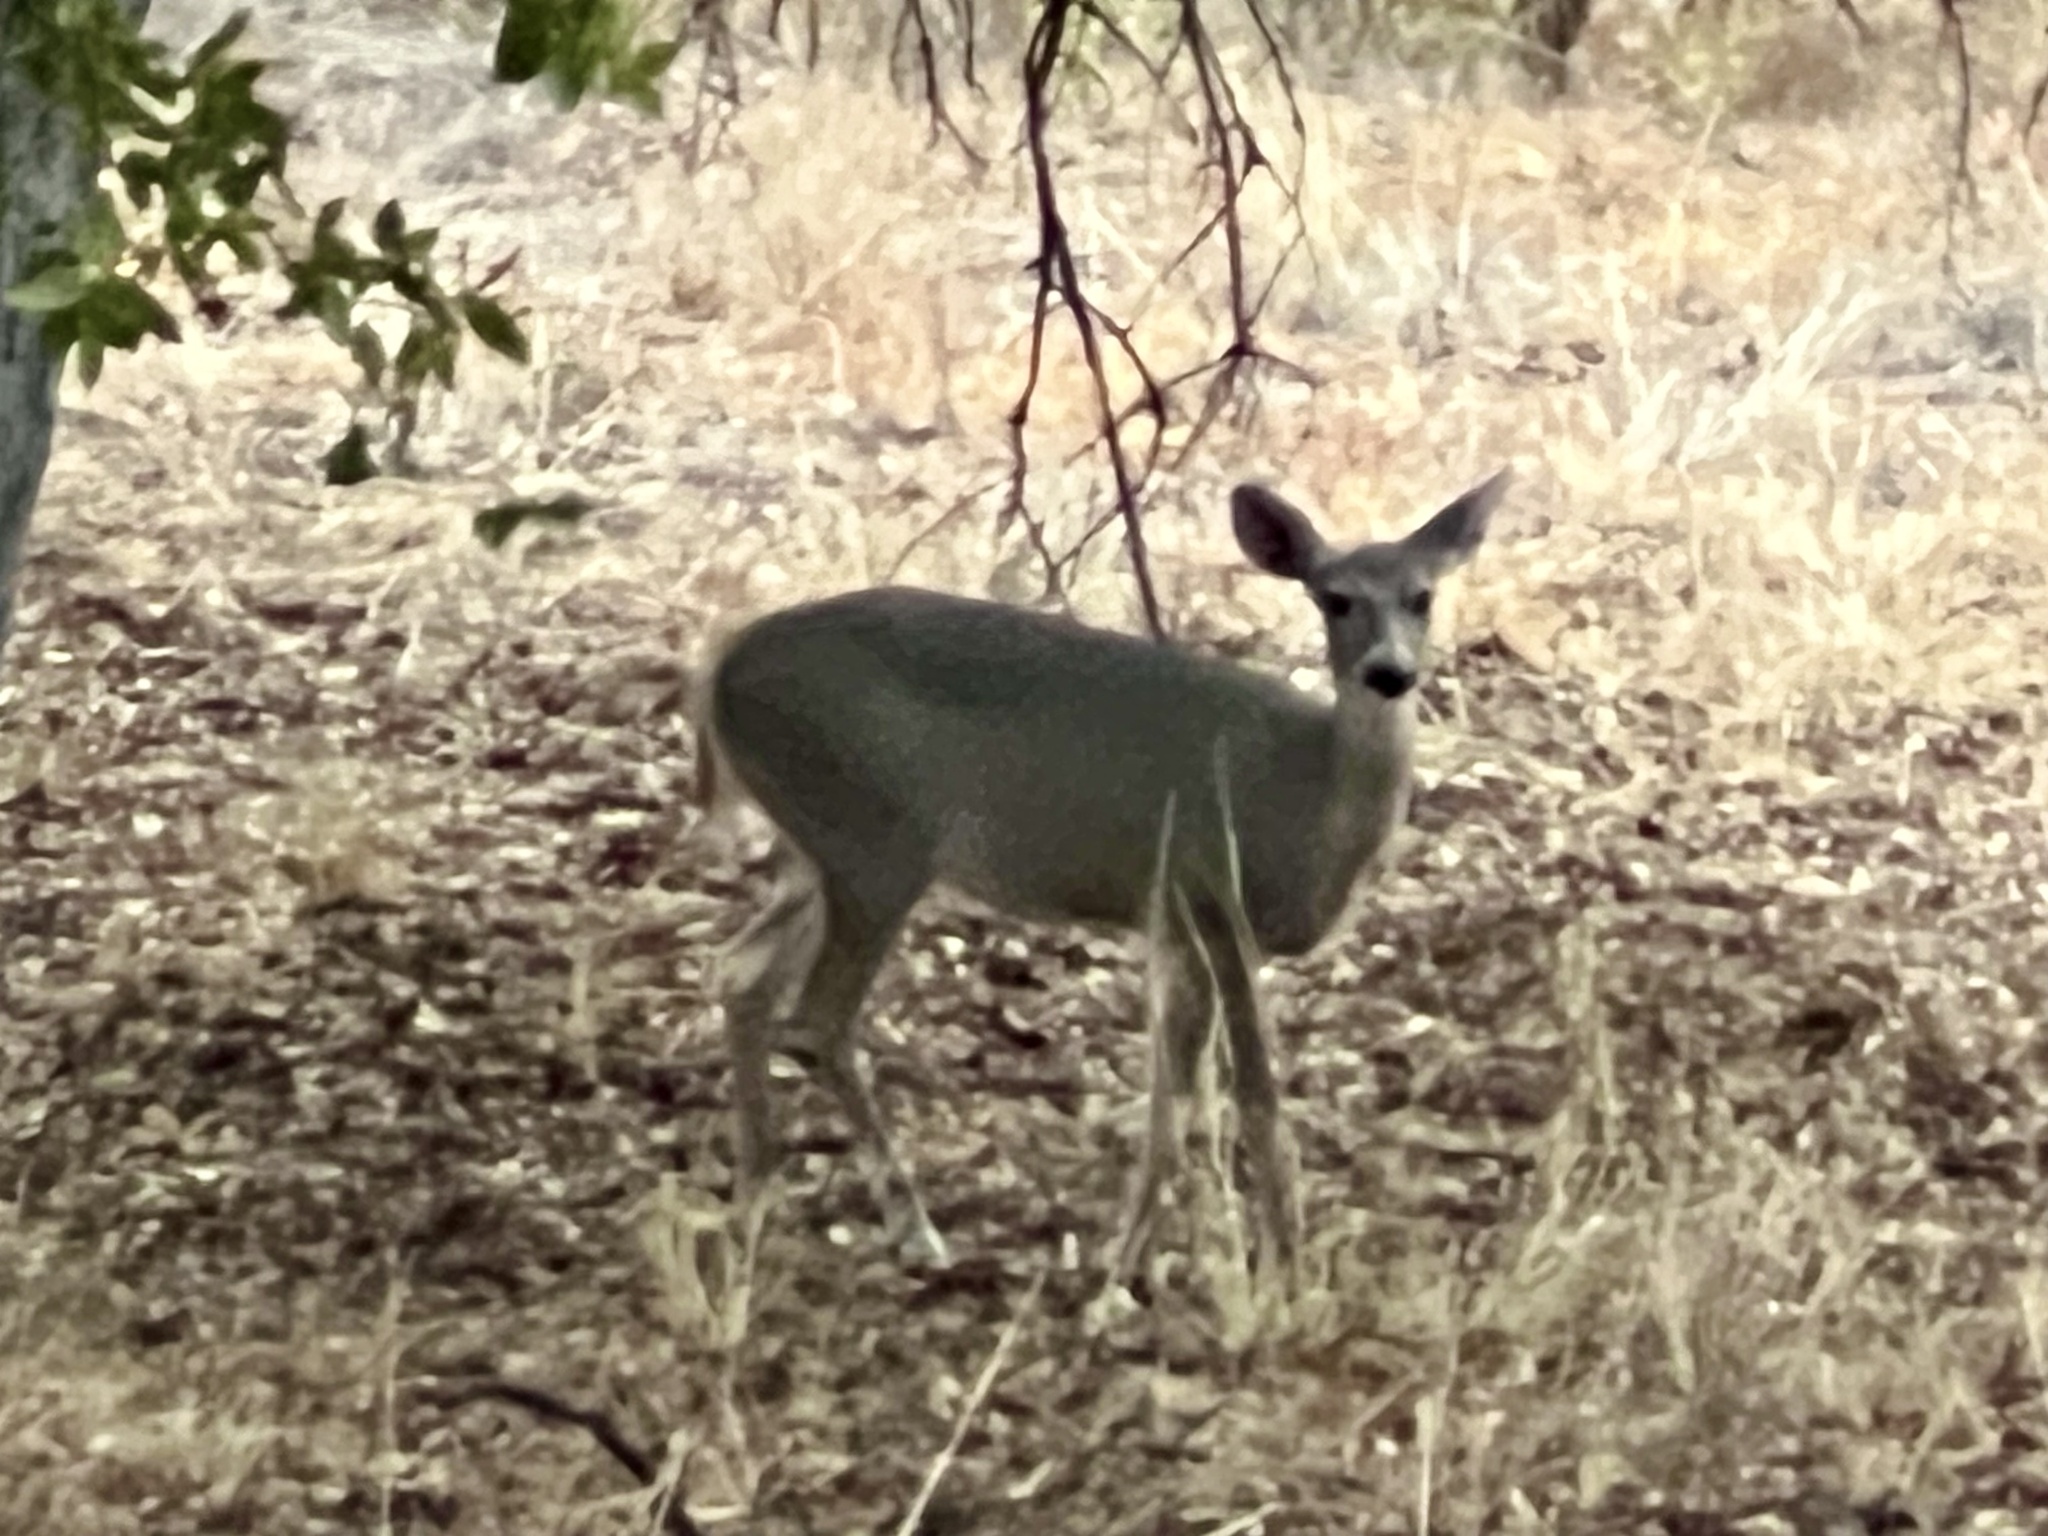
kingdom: Animalia
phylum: Chordata
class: Mammalia
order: Artiodactyla
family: Cervidae
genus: Odocoileus
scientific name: Odocoileus virginianus
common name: White-tailed deer
